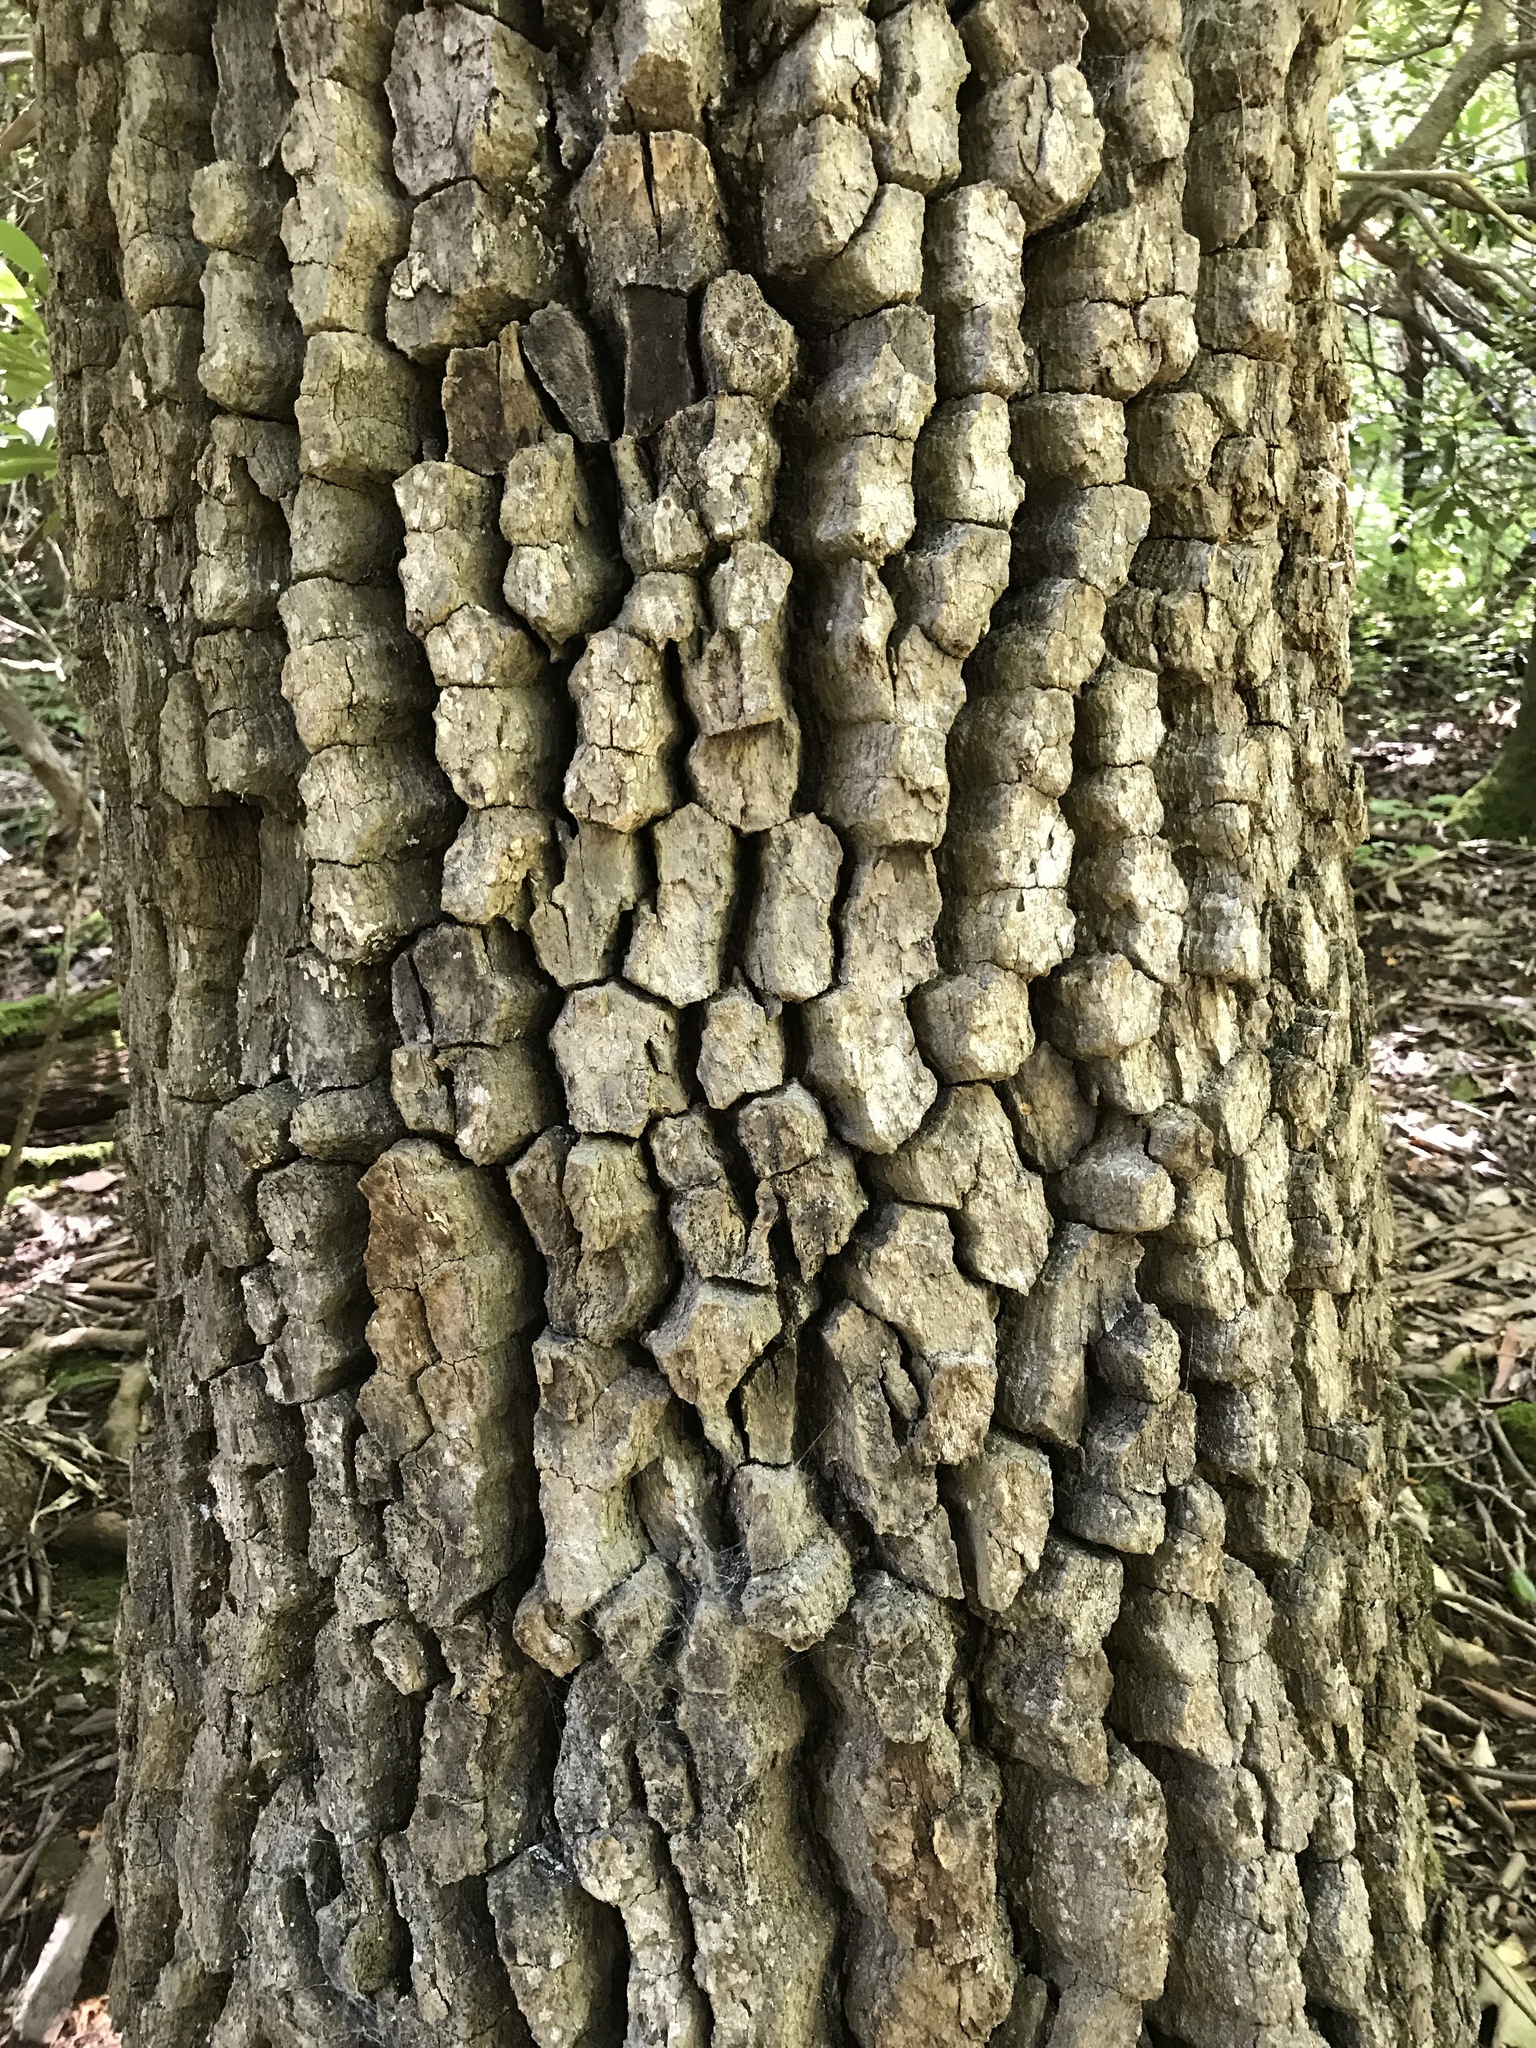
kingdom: Plantae
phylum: Tracheophyta
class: Magnoliopsida
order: Cornales
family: Nyssaceae
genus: Nyssa
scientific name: Nyssa sylvatica
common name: Black tupelo
